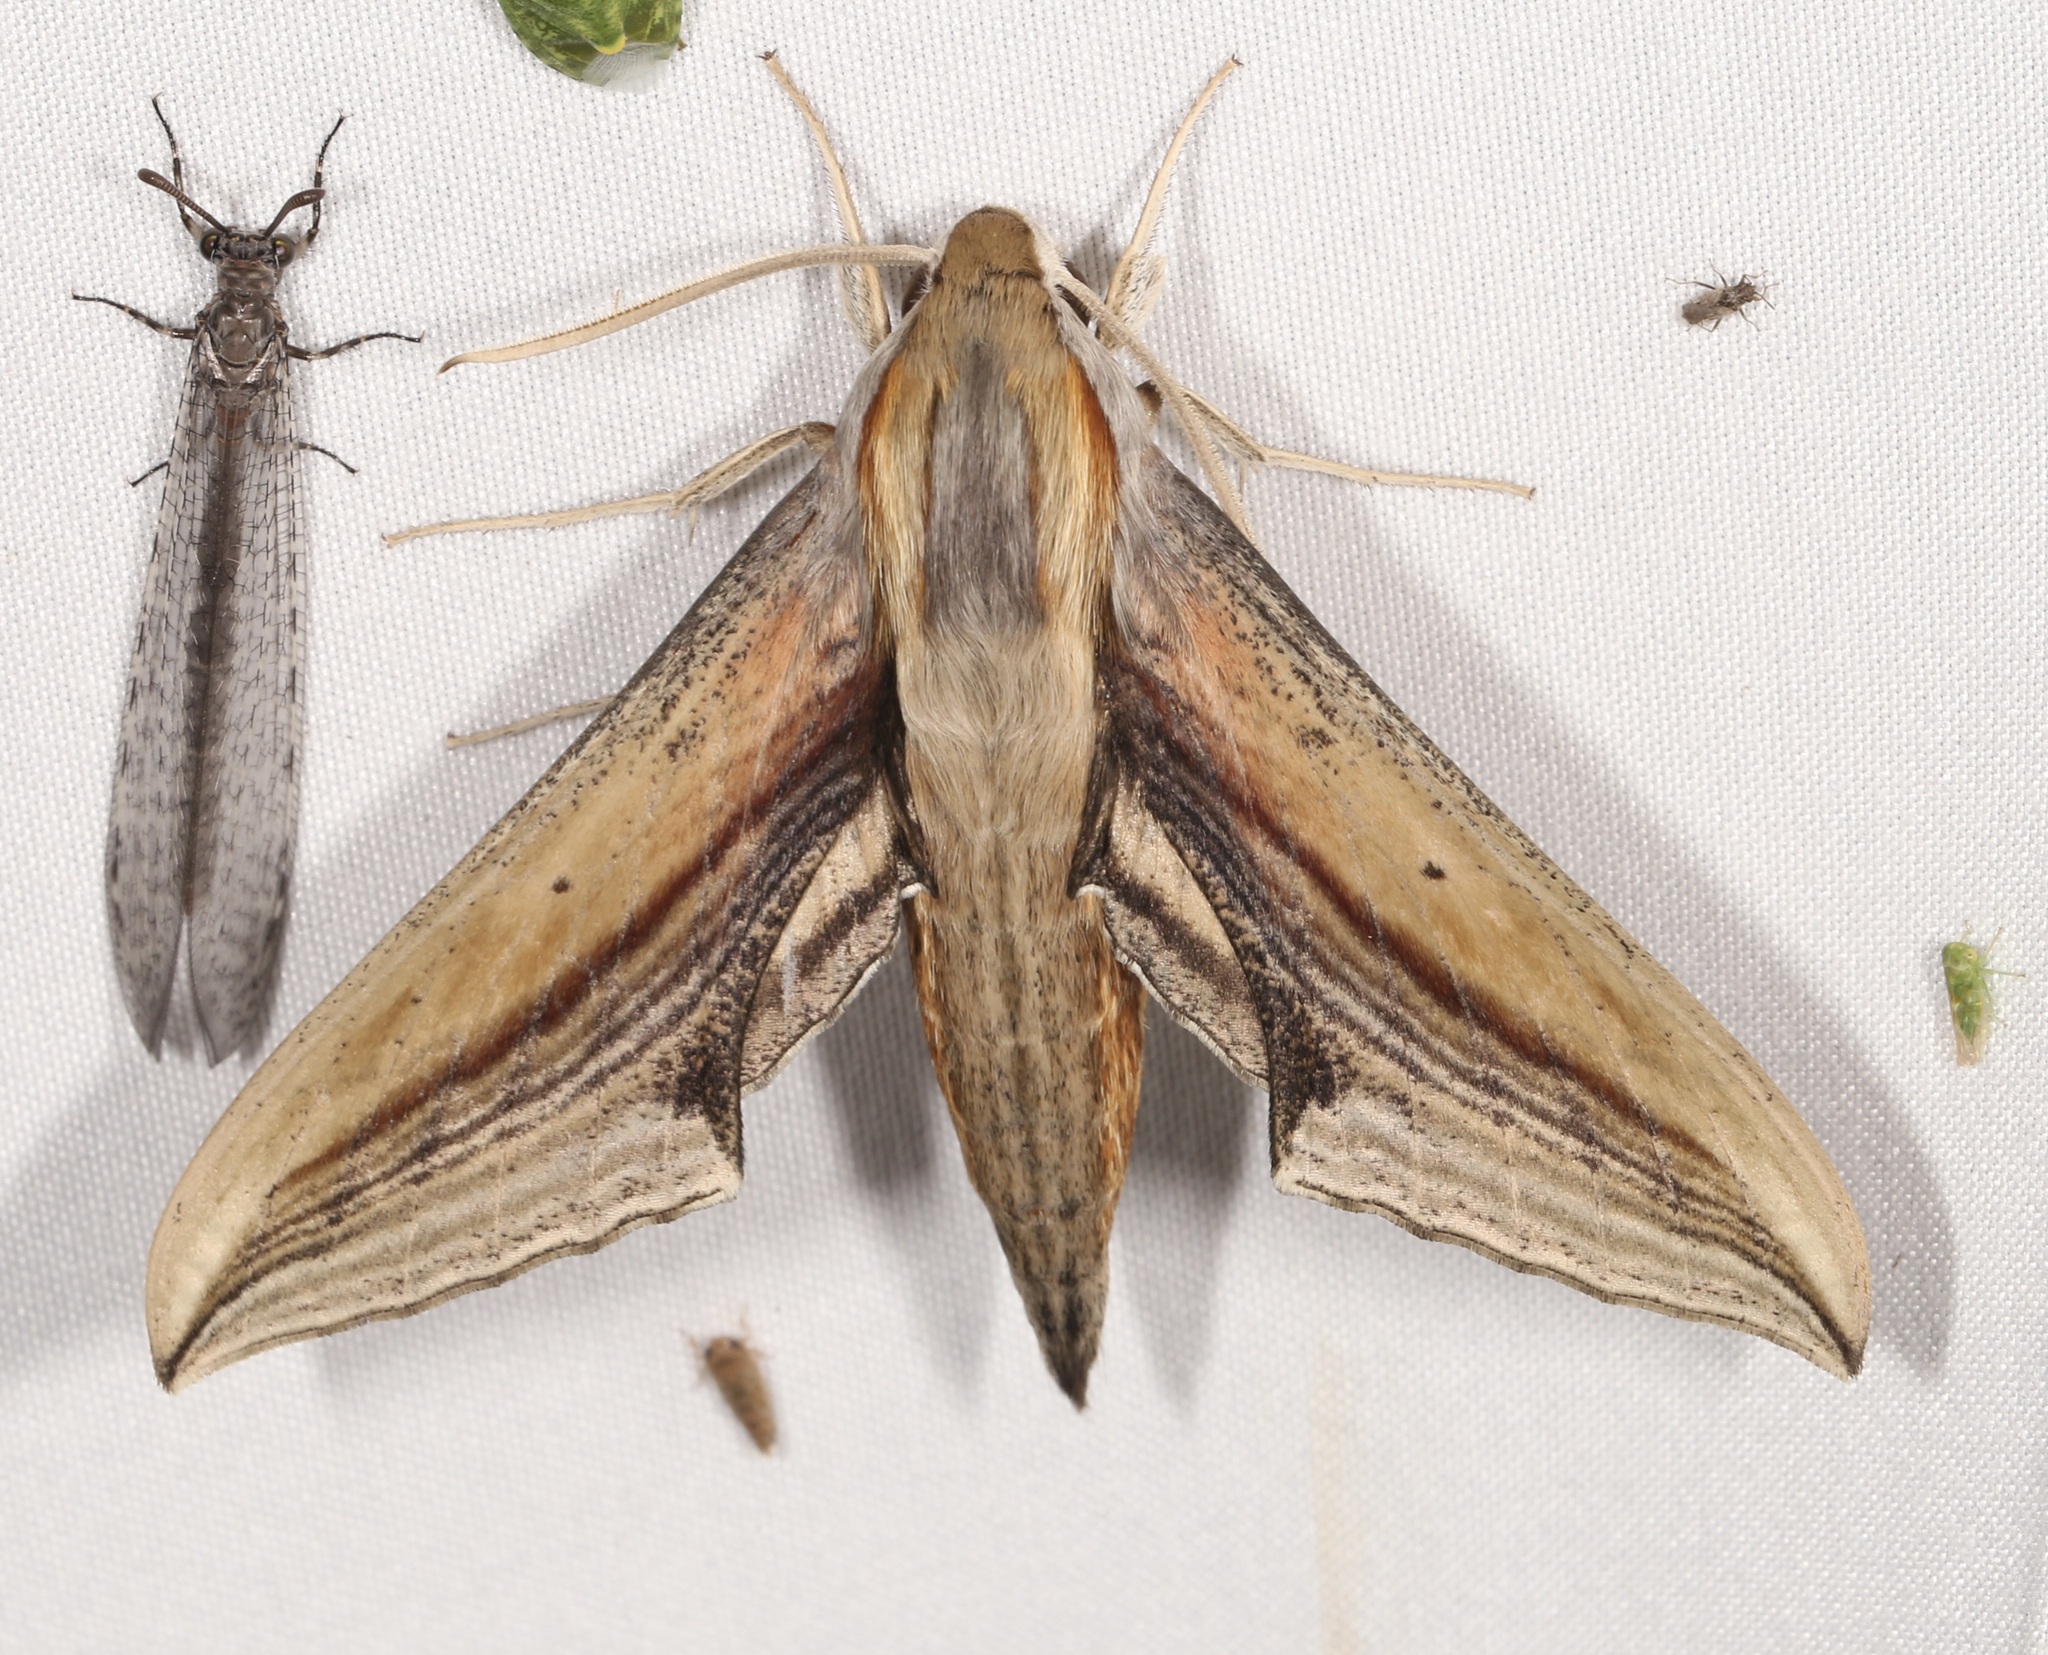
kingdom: Animalia
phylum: Arthropoda
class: Insecta
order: Lepidoptera
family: Sphingidae
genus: Xylophanes
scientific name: Xylophanes falco
